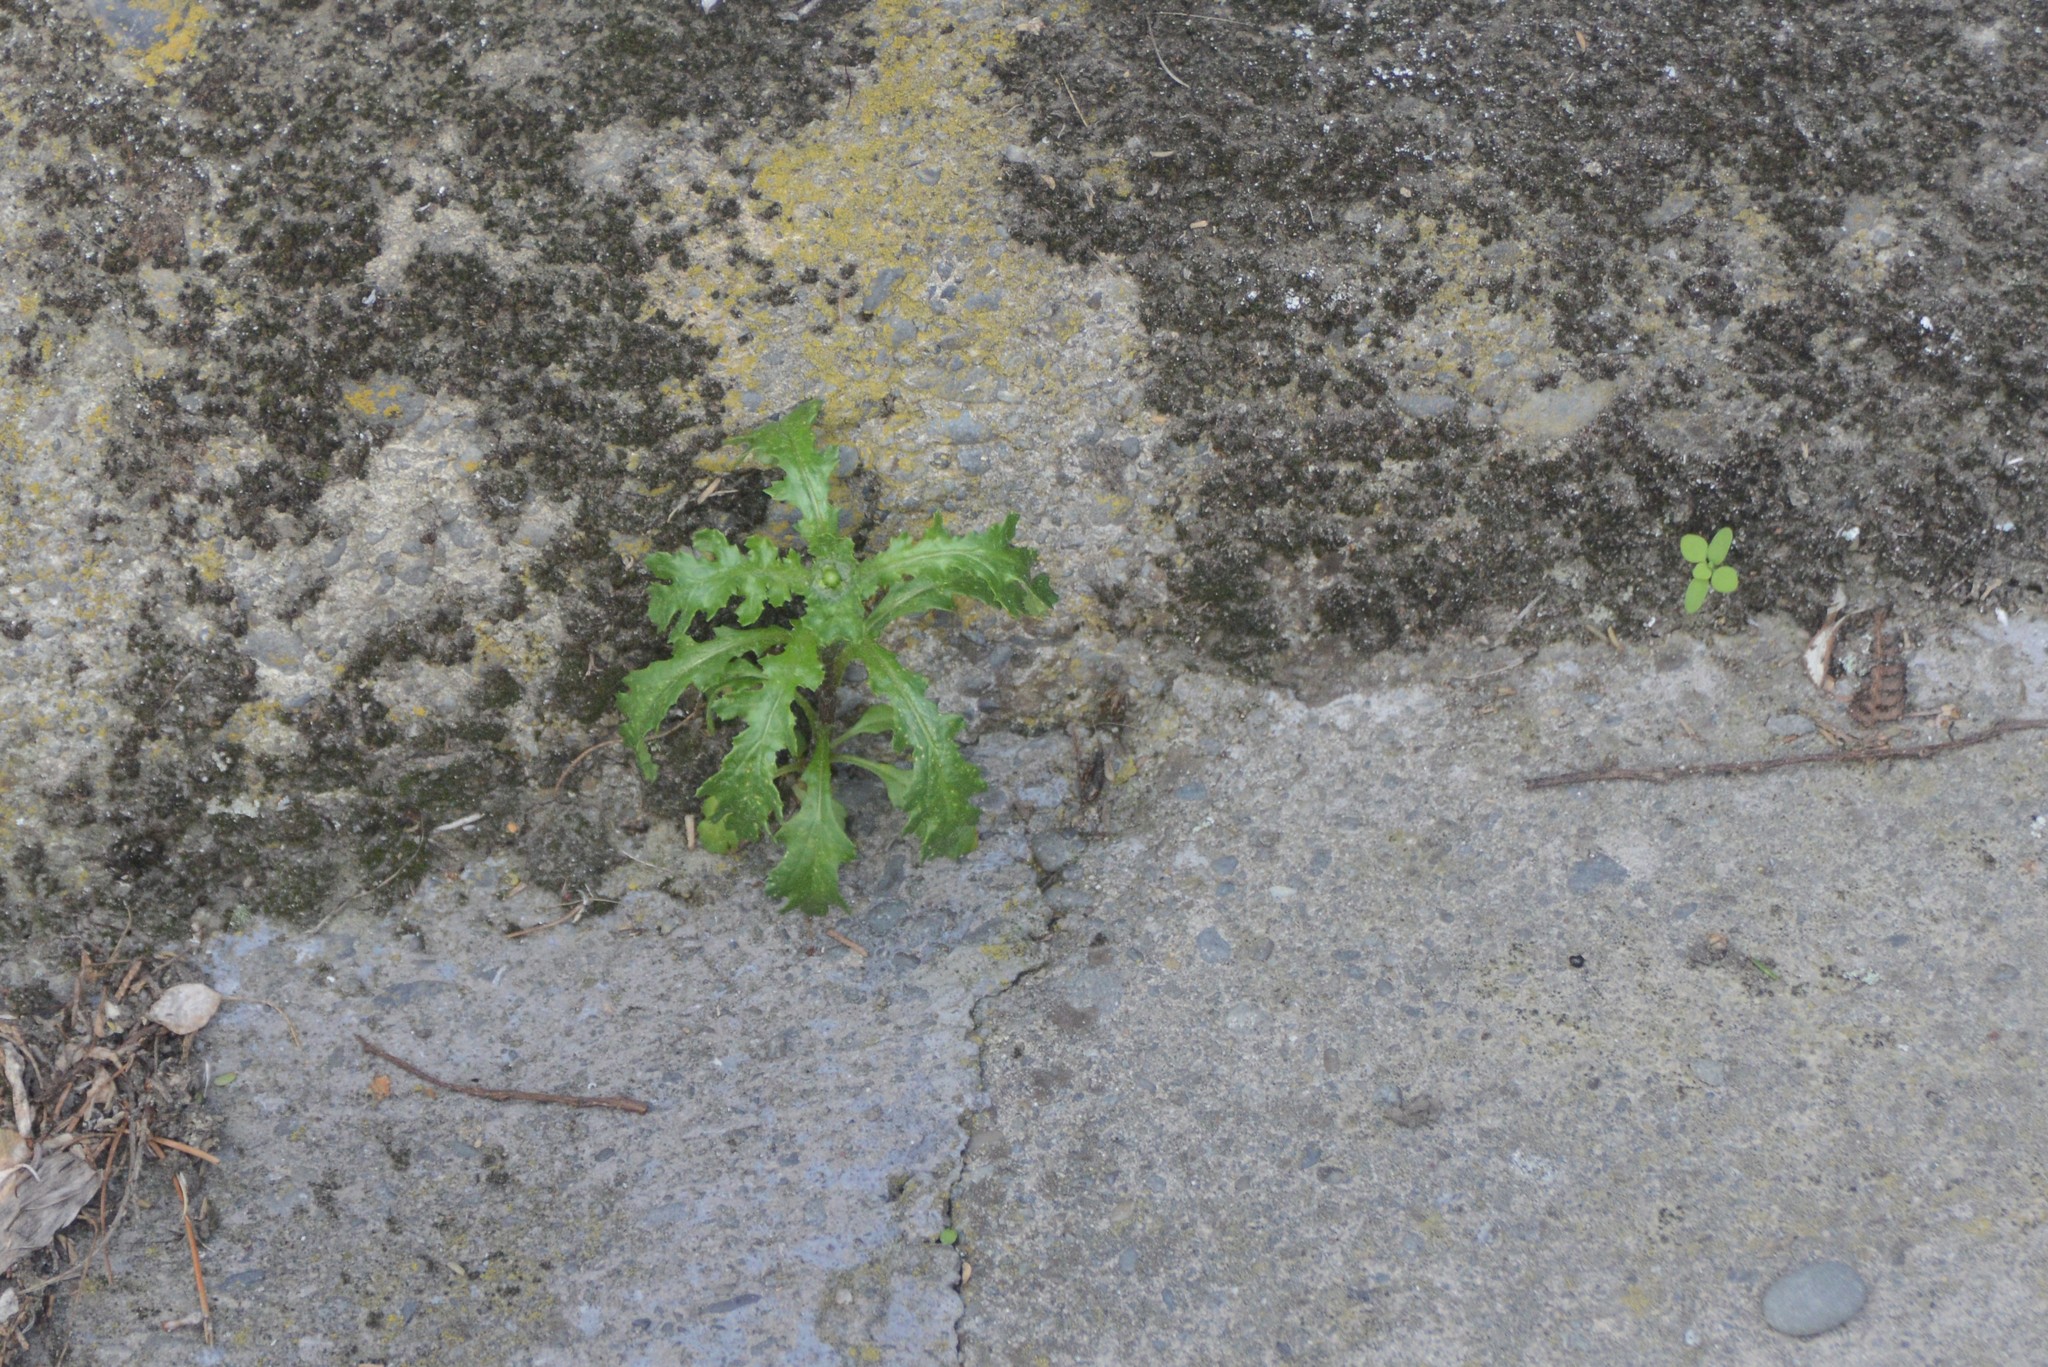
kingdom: Plantae
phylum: Tracheophyta
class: Magnoliopsida
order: Asterales
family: Asteraceae
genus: Senecio
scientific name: Senecio vulgaris
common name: Old-man-in-the-spring
